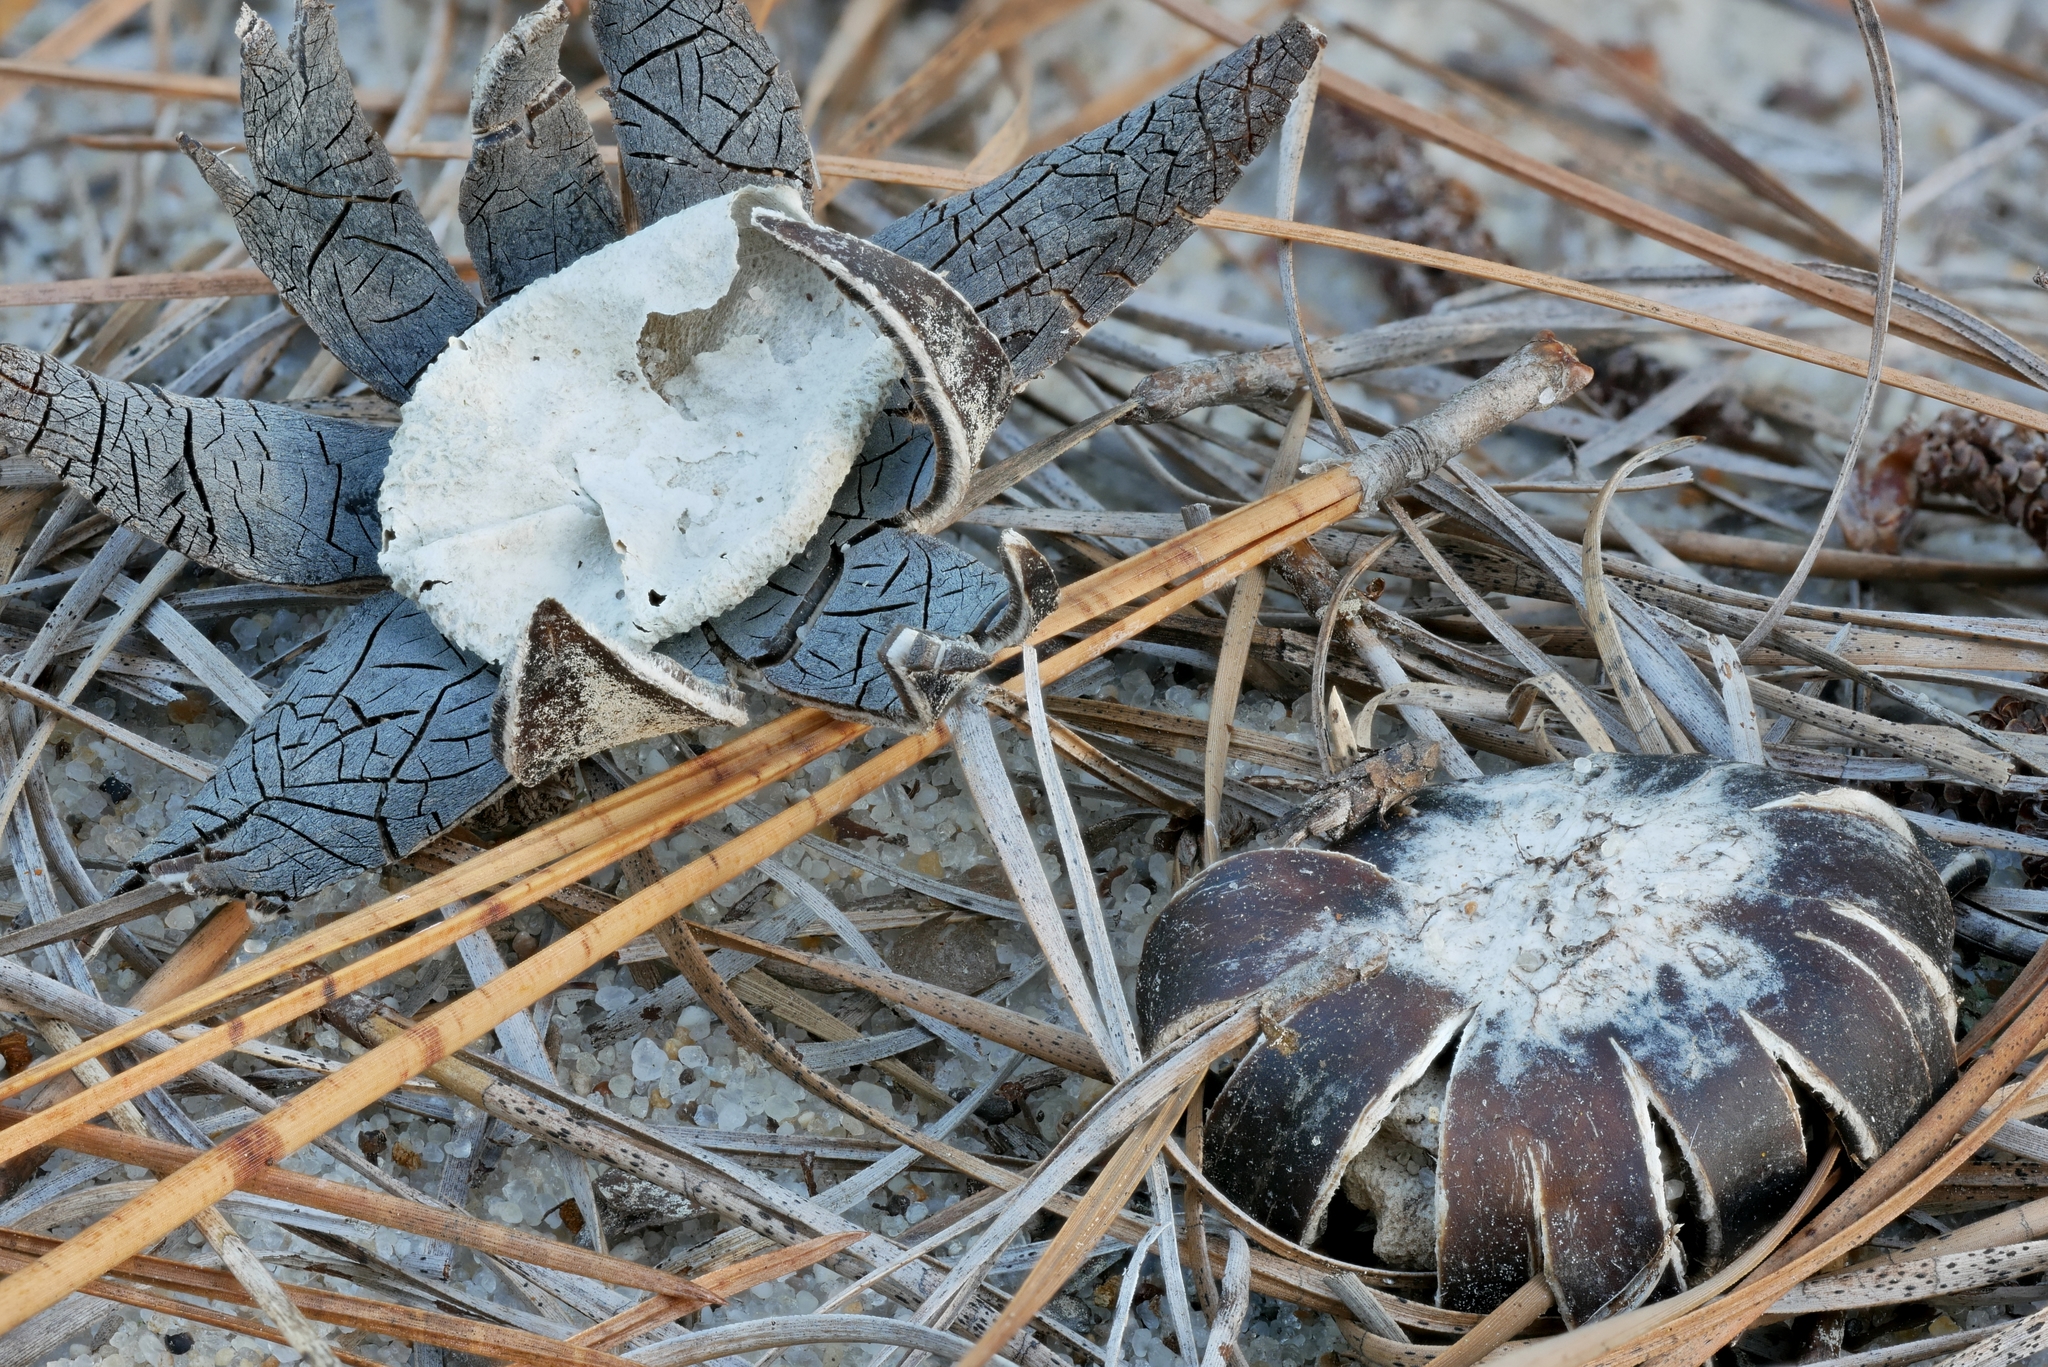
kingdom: Fungi
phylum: Basidiomycota
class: Agaricomycetes
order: Boletales
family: Diplocystidiaceae
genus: Astraeus
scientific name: Astraeus smithii
